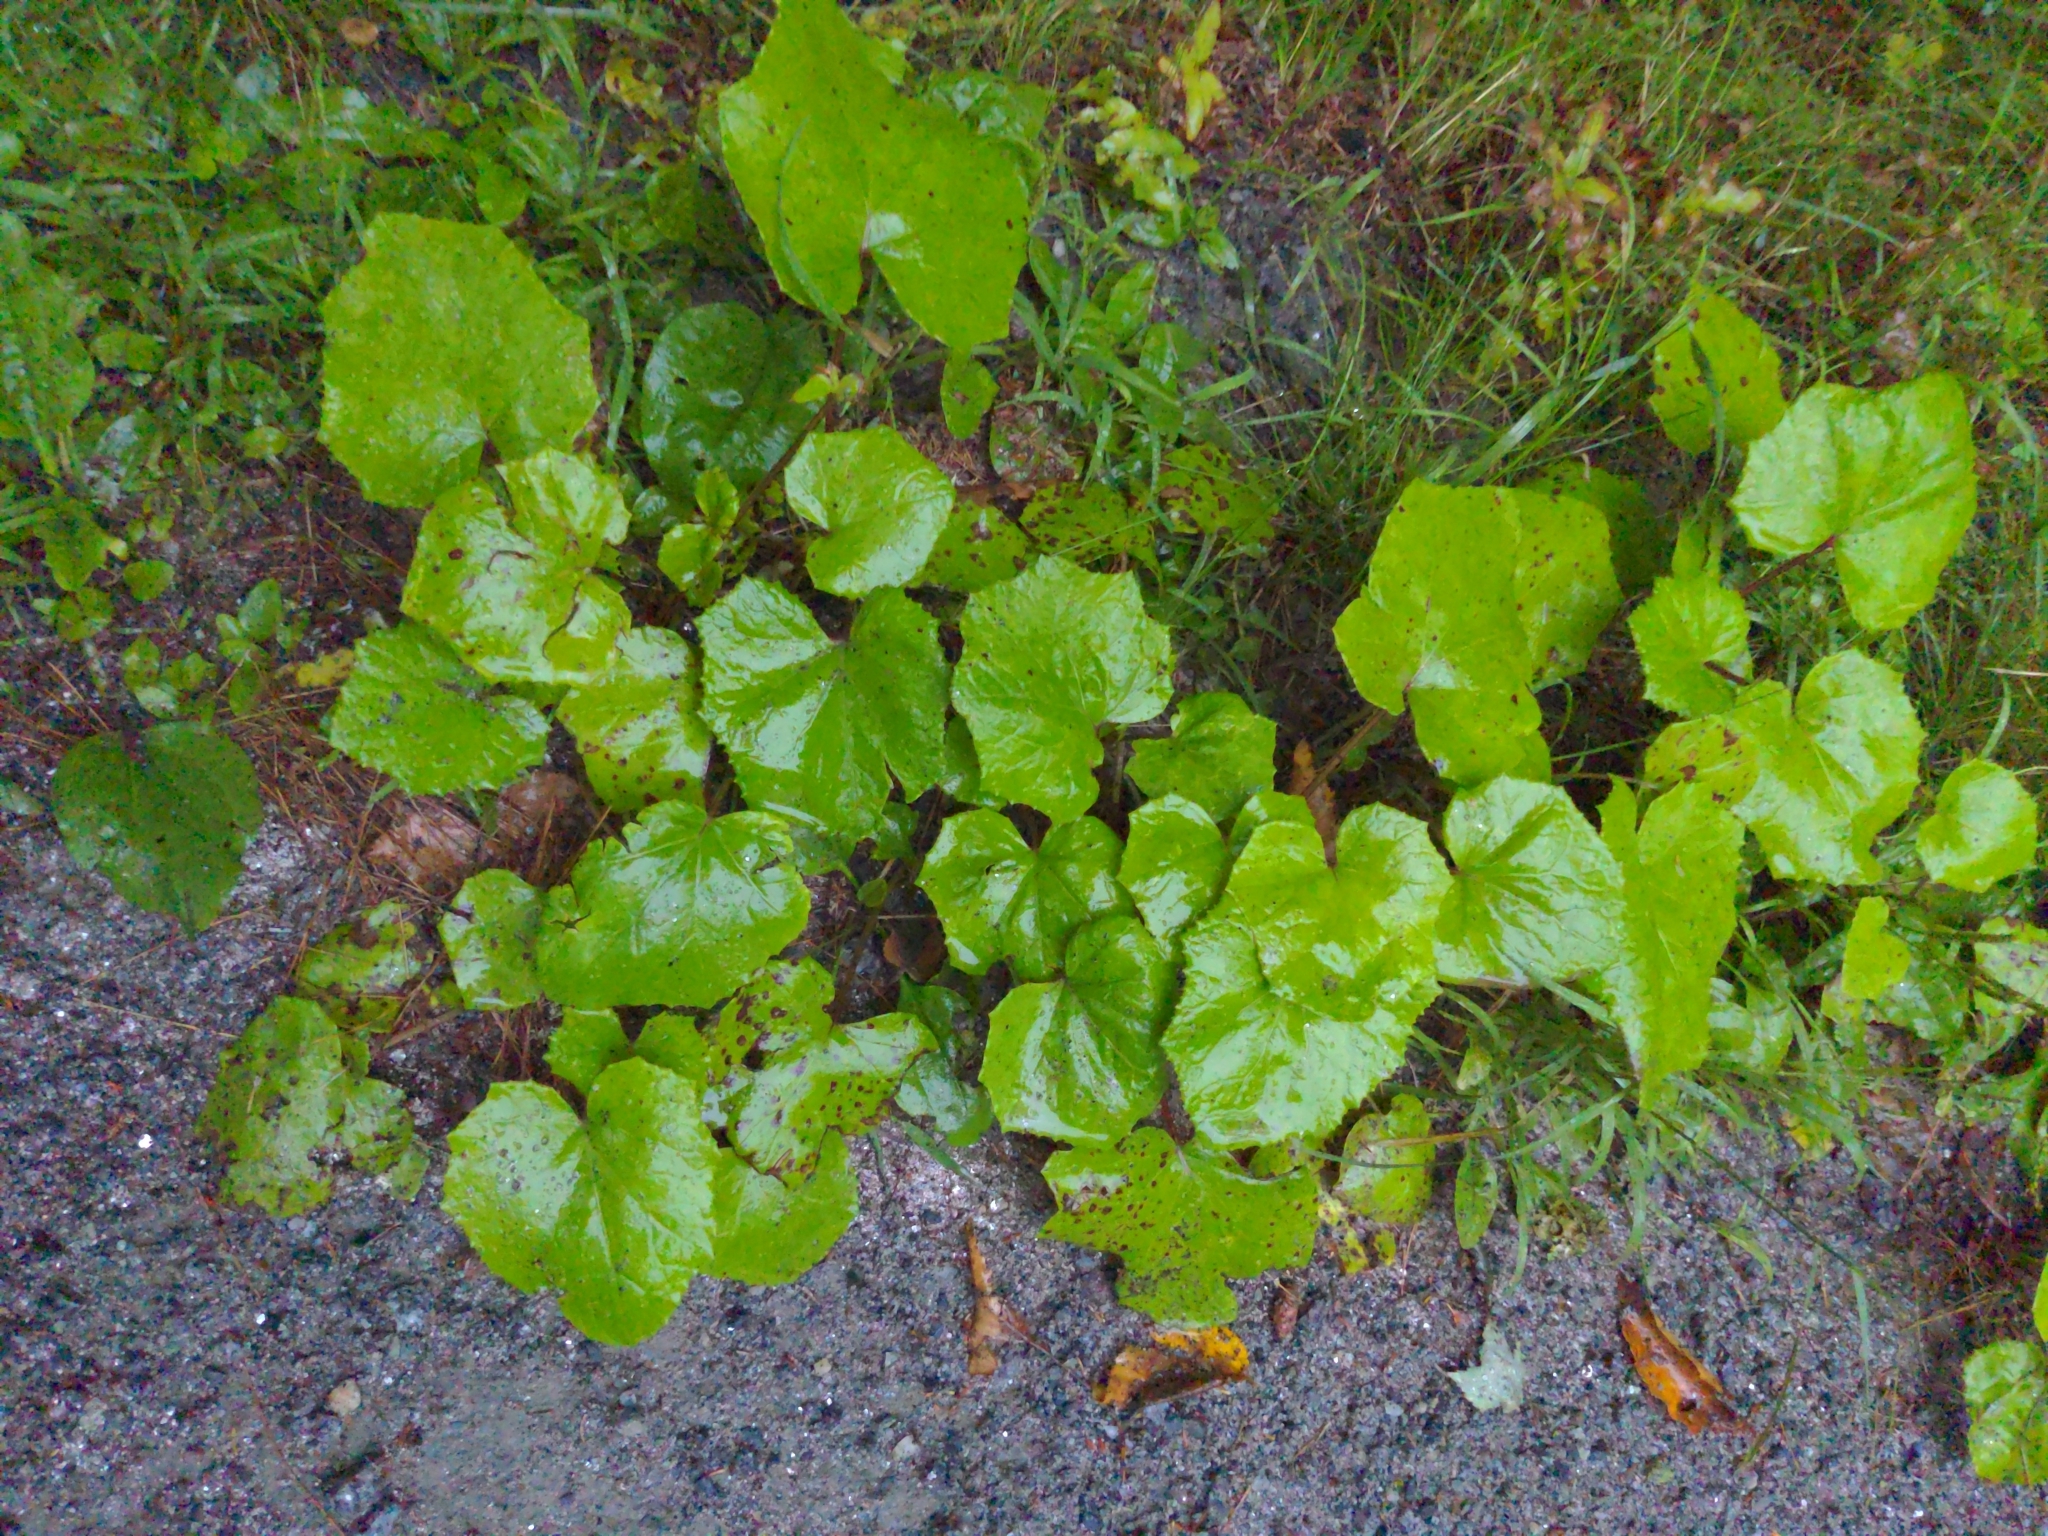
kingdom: Plantae
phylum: Tracheophyta
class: Magnoliopsida
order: Asterales
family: Asteraceae
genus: Tussilago
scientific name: Tussilago farfara
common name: Coltsfoot
